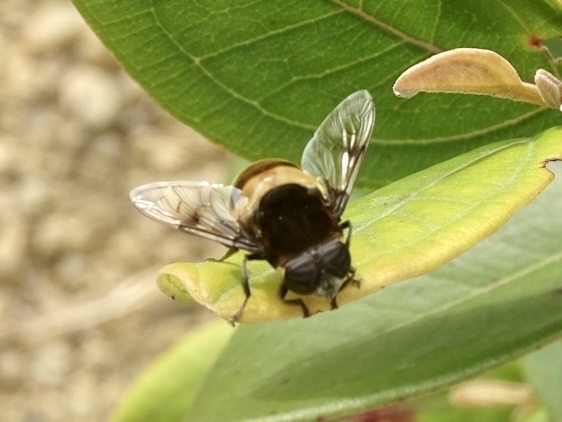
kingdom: Animalia
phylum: Arthropoda
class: Insecta
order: Diptera
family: Syrphidae
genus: Phytomia
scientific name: Phytomia zonata
